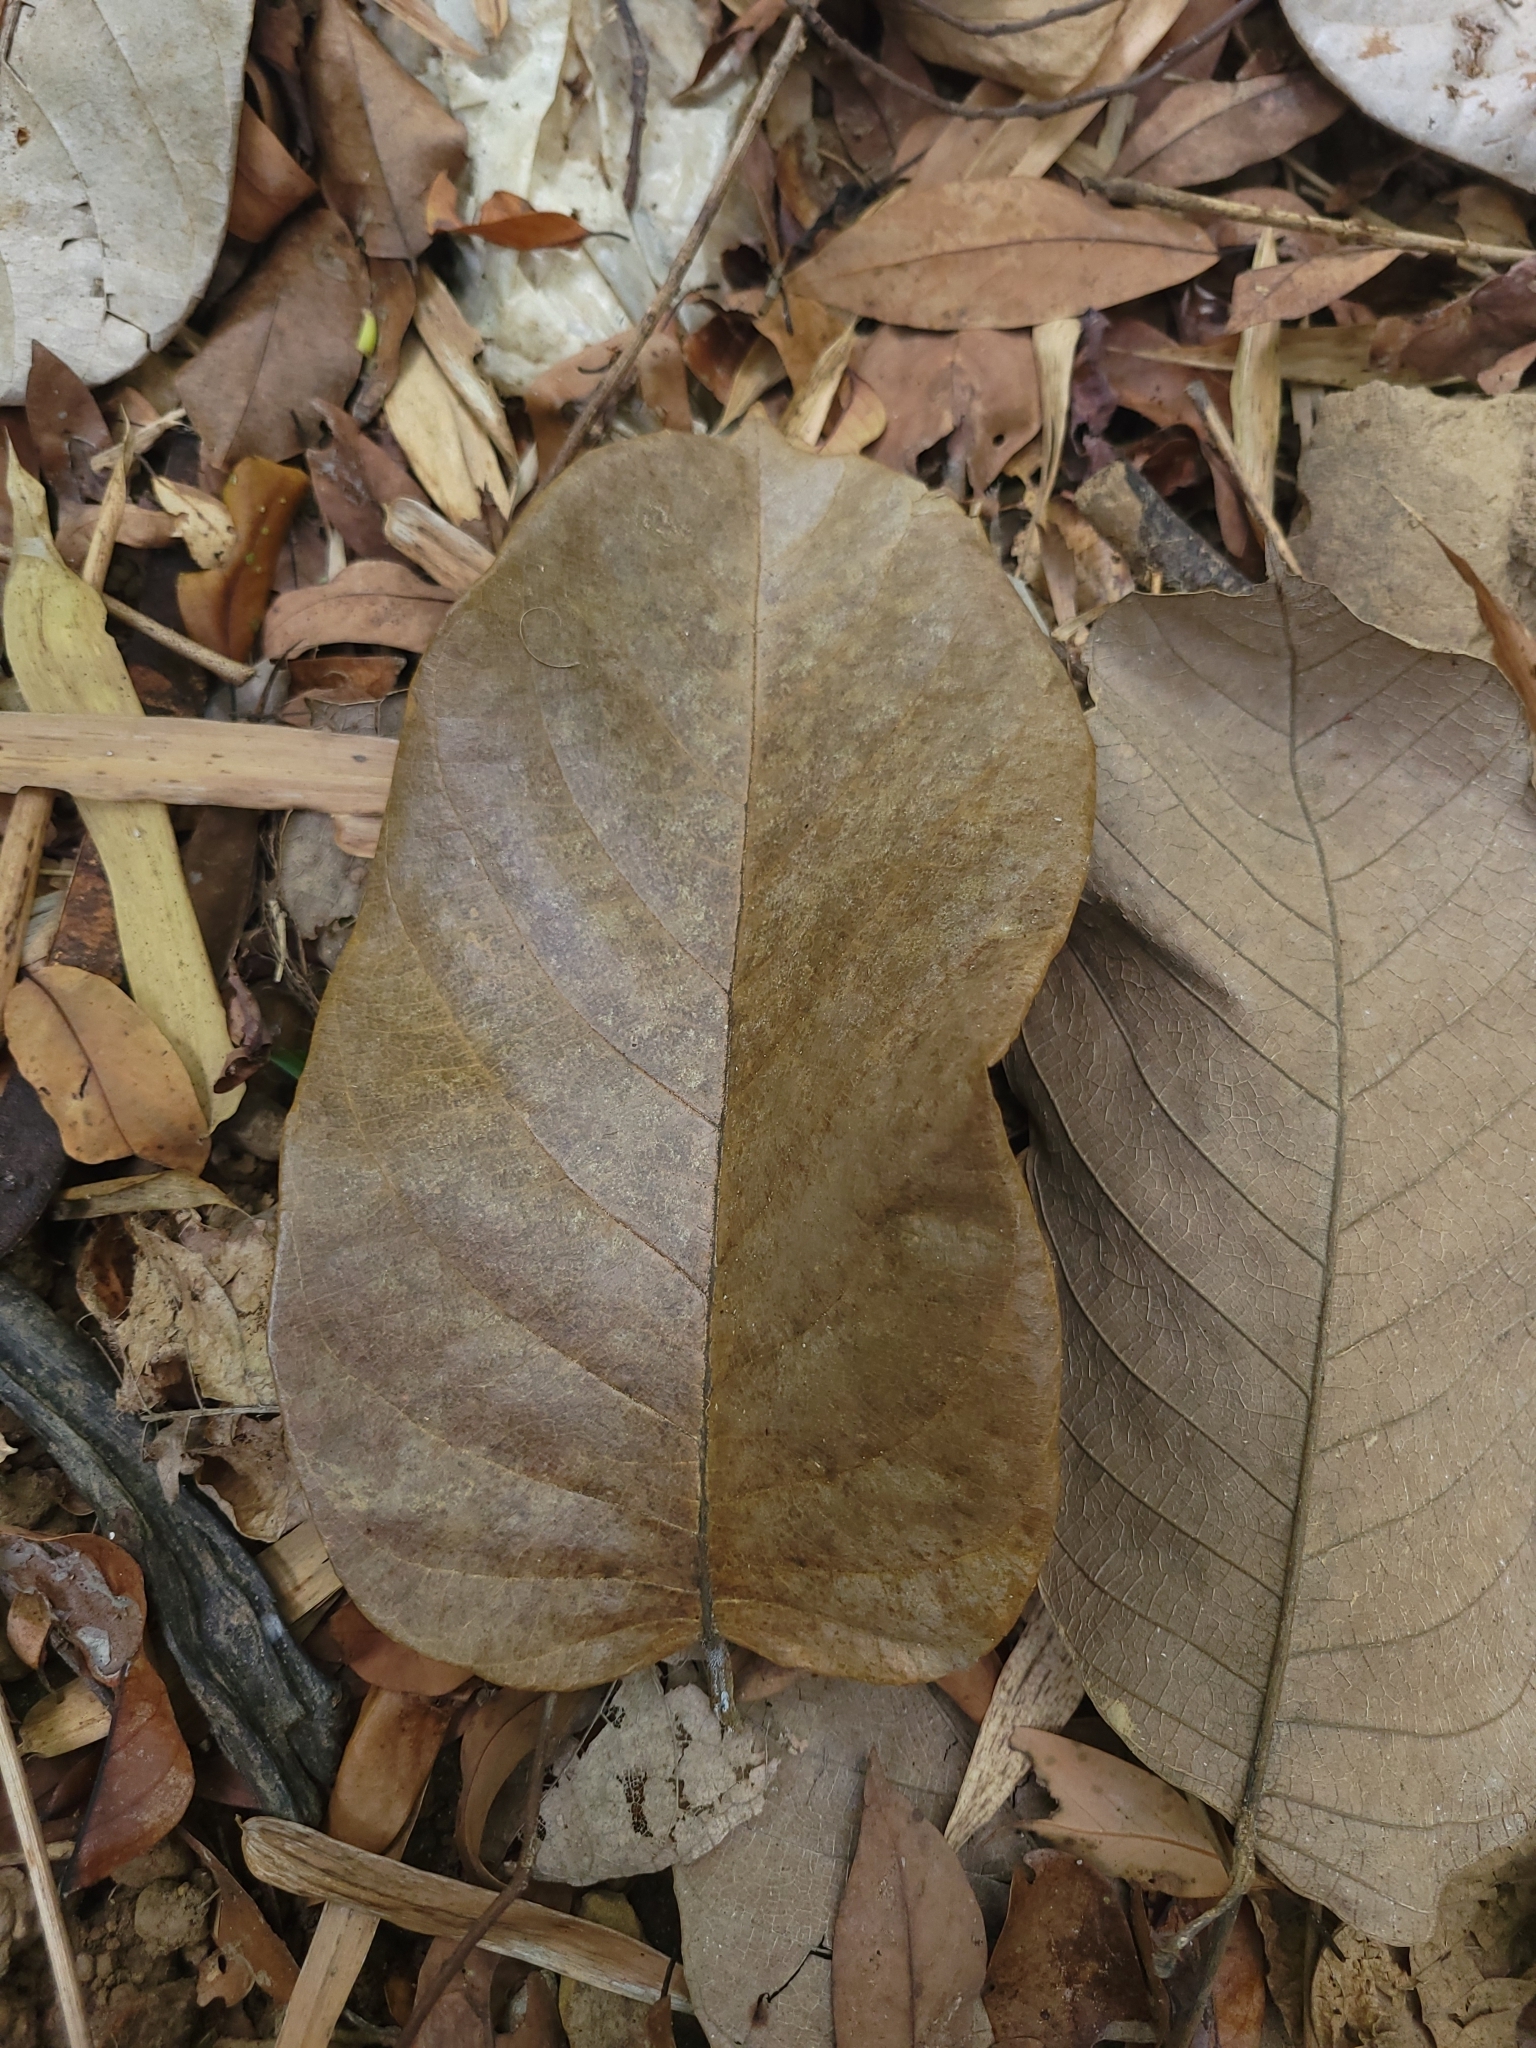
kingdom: Plantae
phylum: Tracheophyta
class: Magnoliopsida
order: Rosales
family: Moraceae
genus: Artocarpus
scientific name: Artocarpus lacucha
